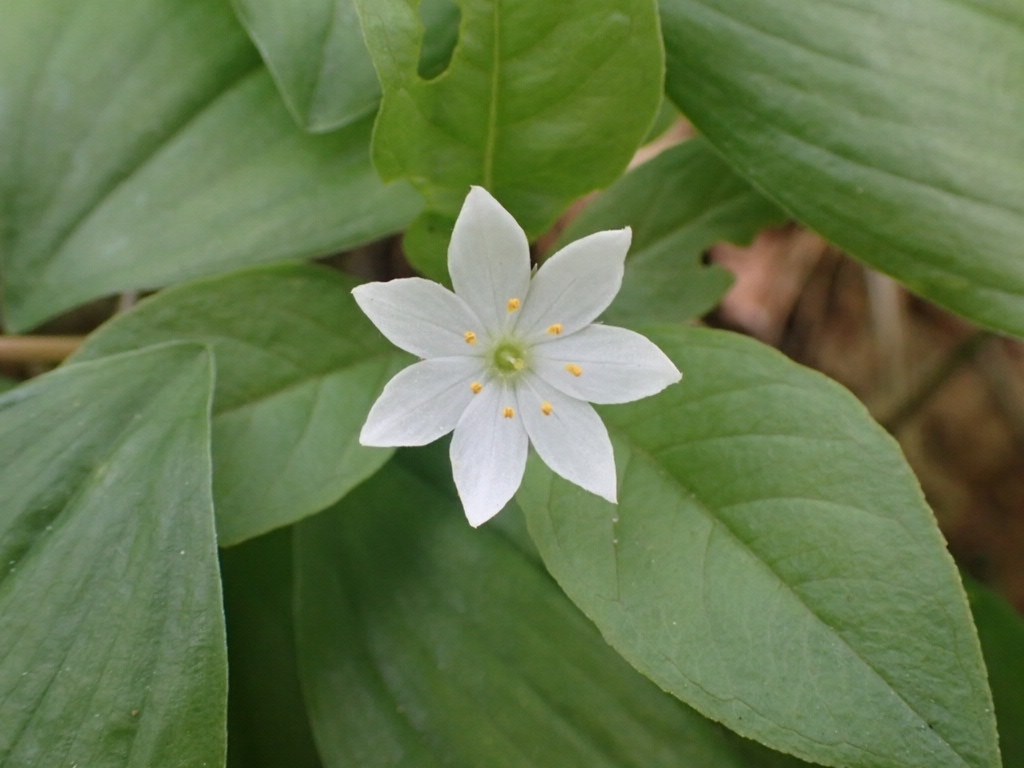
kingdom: Plantae
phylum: Tracheophyta
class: Magnoliopsida
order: Ericales
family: Primulaceae
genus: Lysimachia
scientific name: Lysimachia europaea
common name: Arctic starflower
